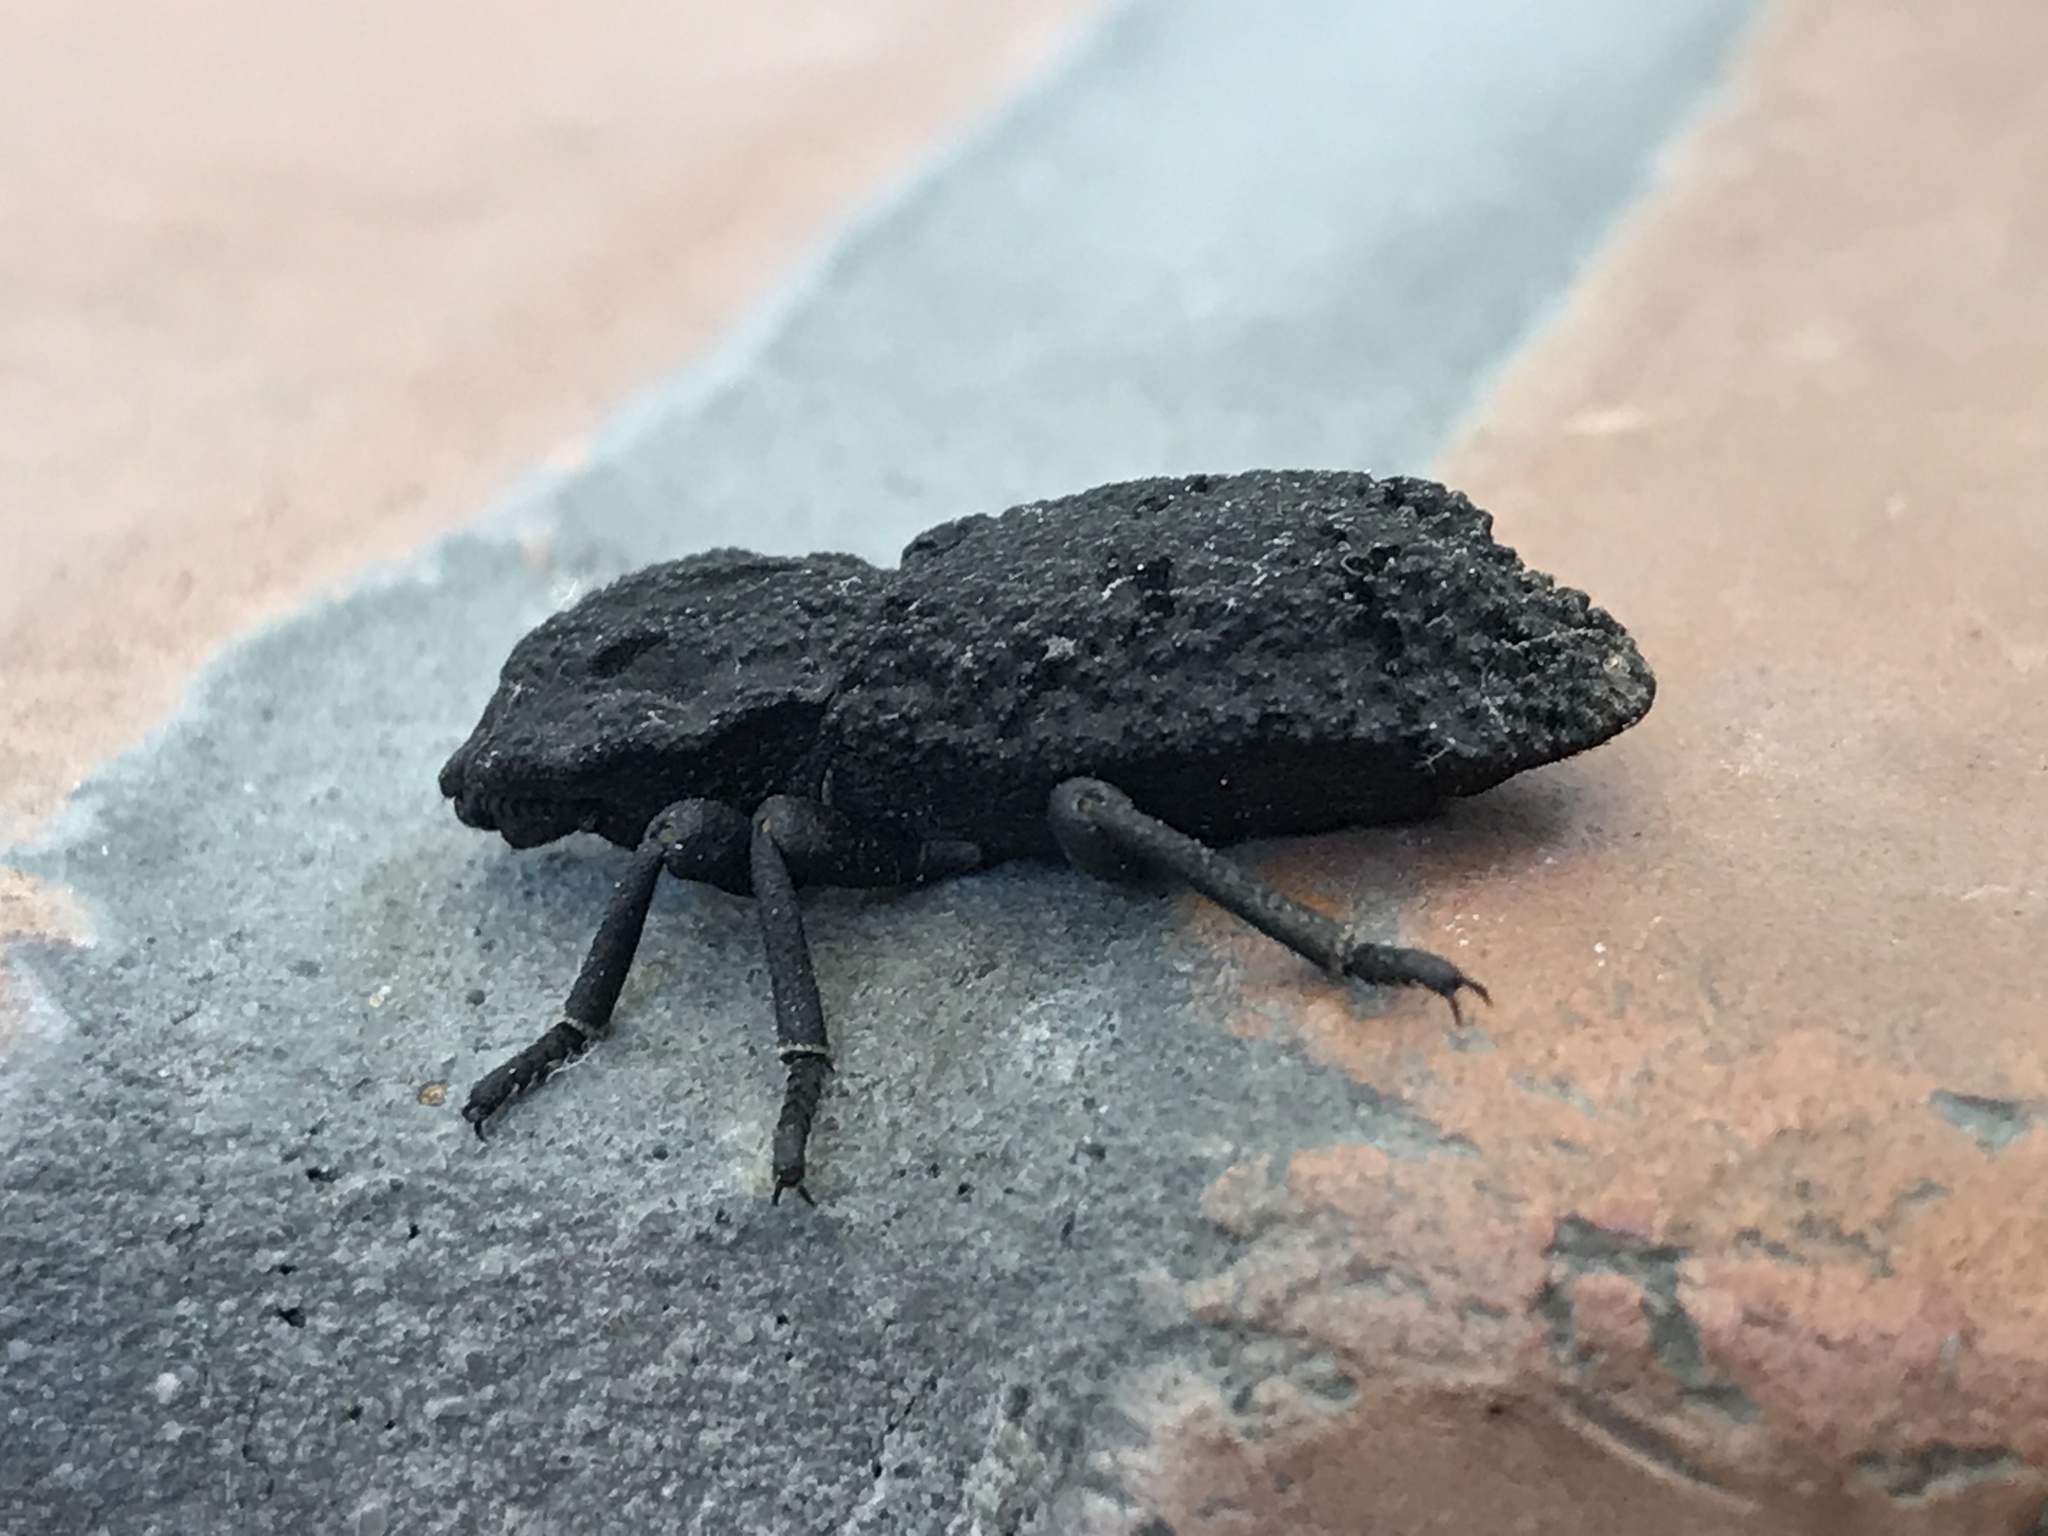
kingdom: Animalia
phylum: Arthropoda
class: Insecta
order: Coleoptera
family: Zopheridae
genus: Phloeodes
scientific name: Phloeodes diabolicus
